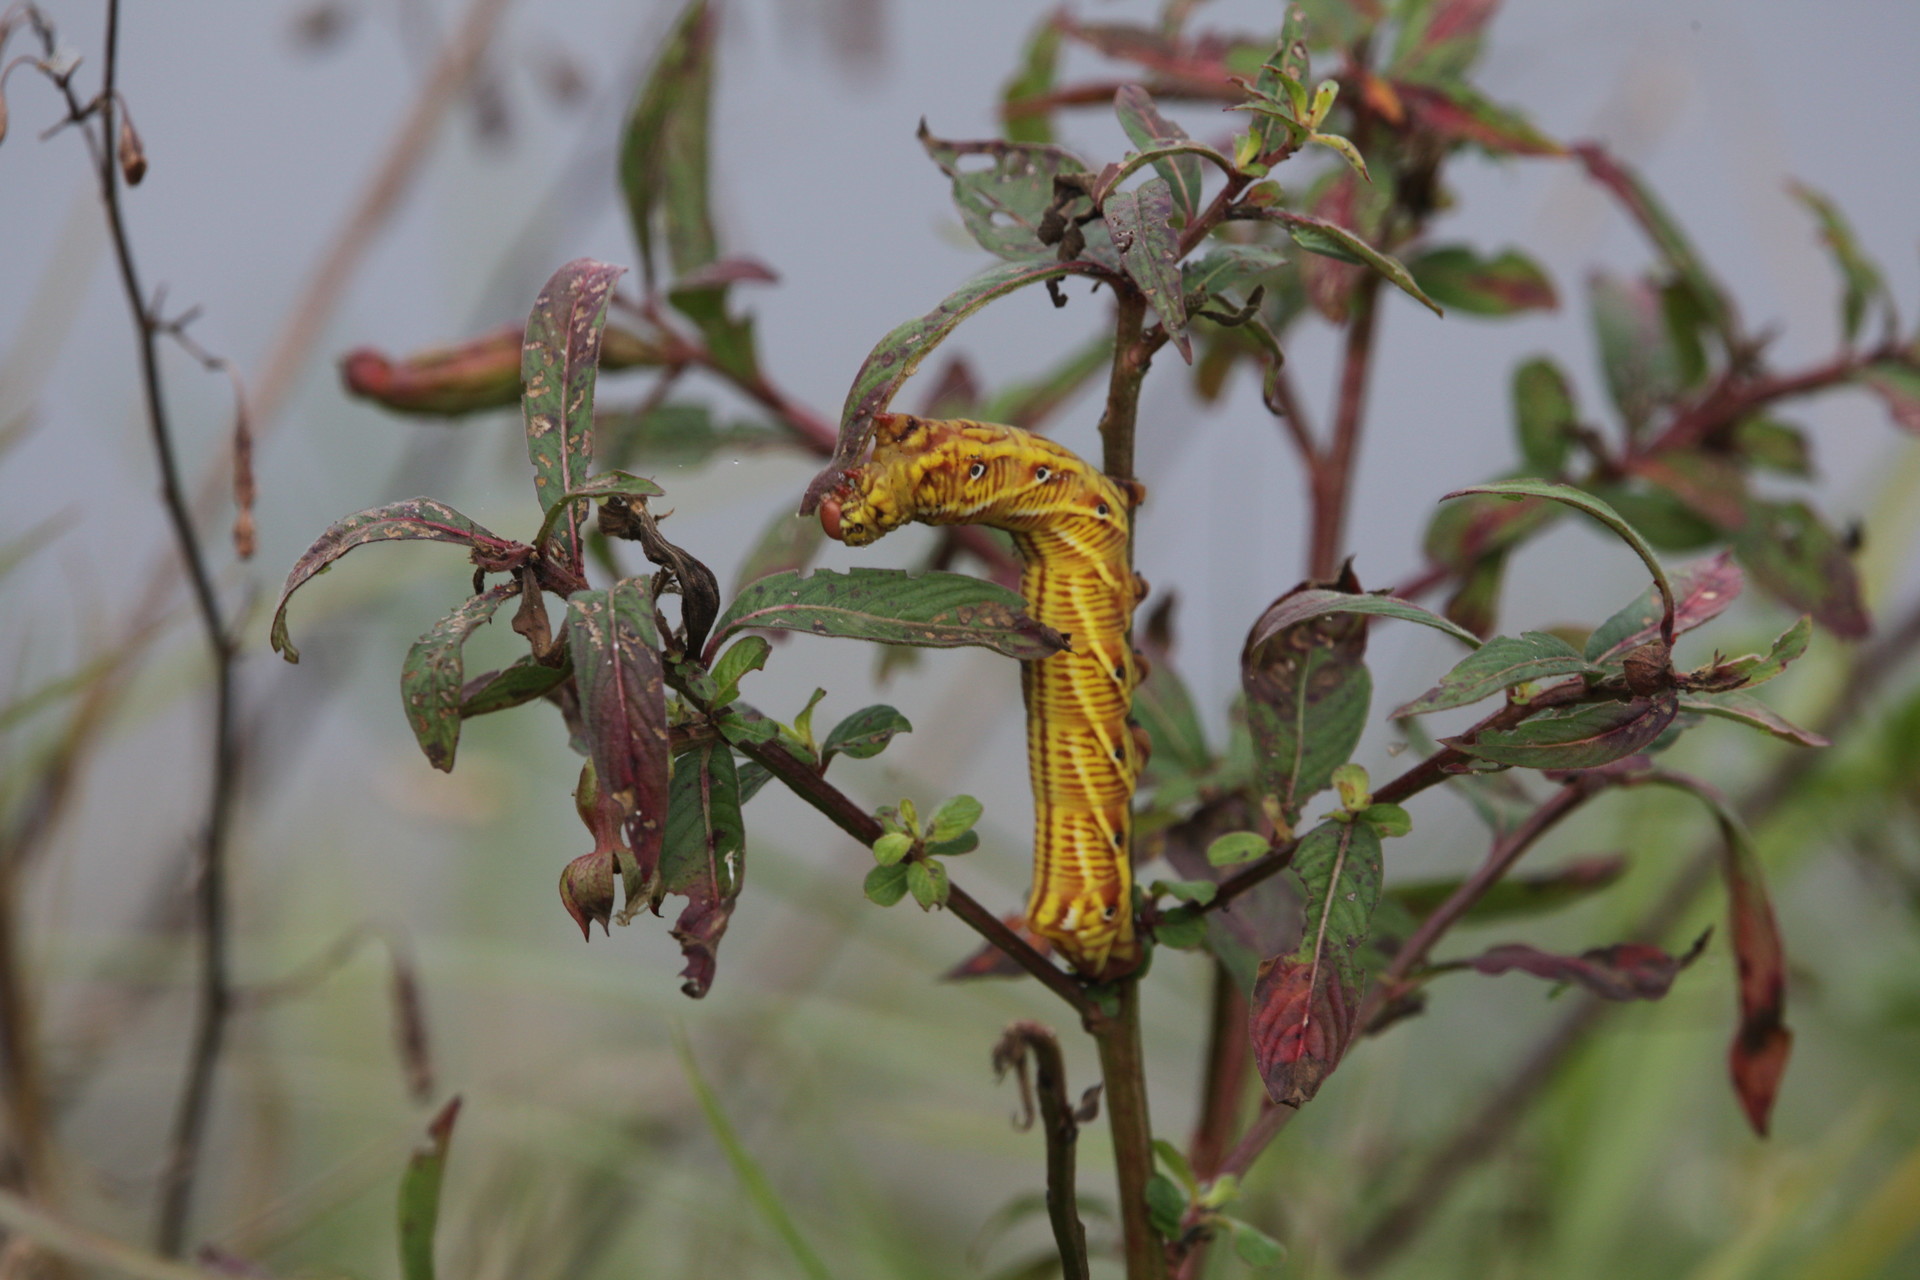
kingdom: Animalia
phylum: Arthropoda
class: Insecta
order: Lepidoptera
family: Sphingidae
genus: Eumorpha
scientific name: Eumorpha fasciatus
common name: Banded sphinx
